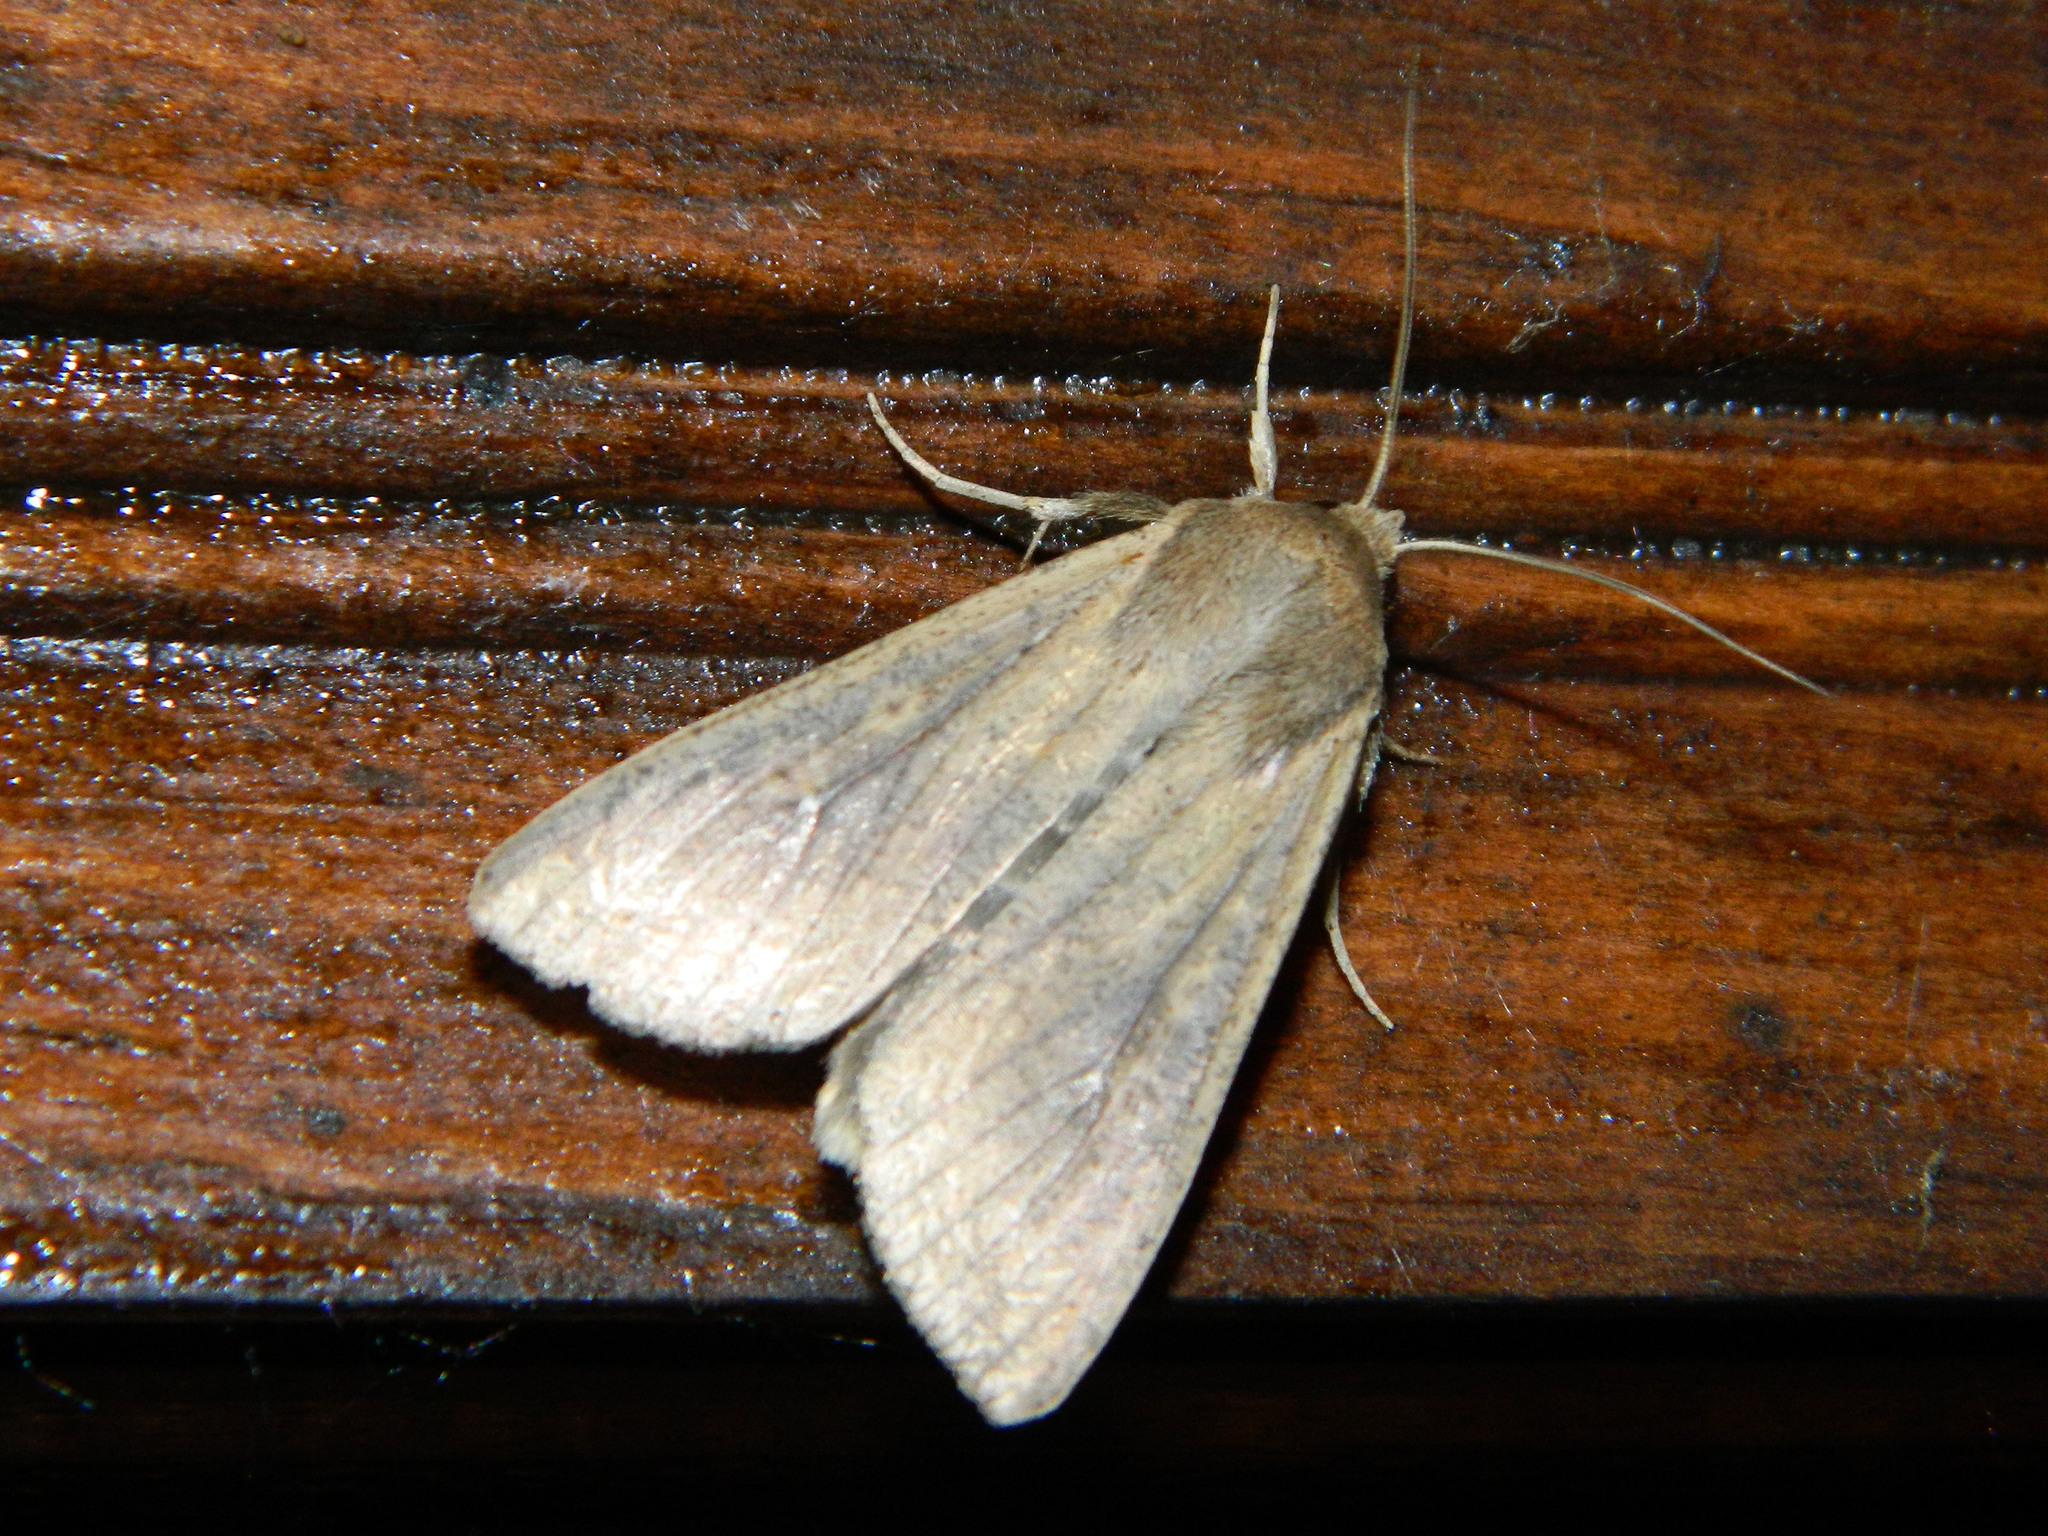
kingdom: Animalia
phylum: Arthropoda
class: Insecta
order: Lepidoptera
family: Noctuidae
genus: Mythimna
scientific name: Mythimna unipuncta
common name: White-speck
